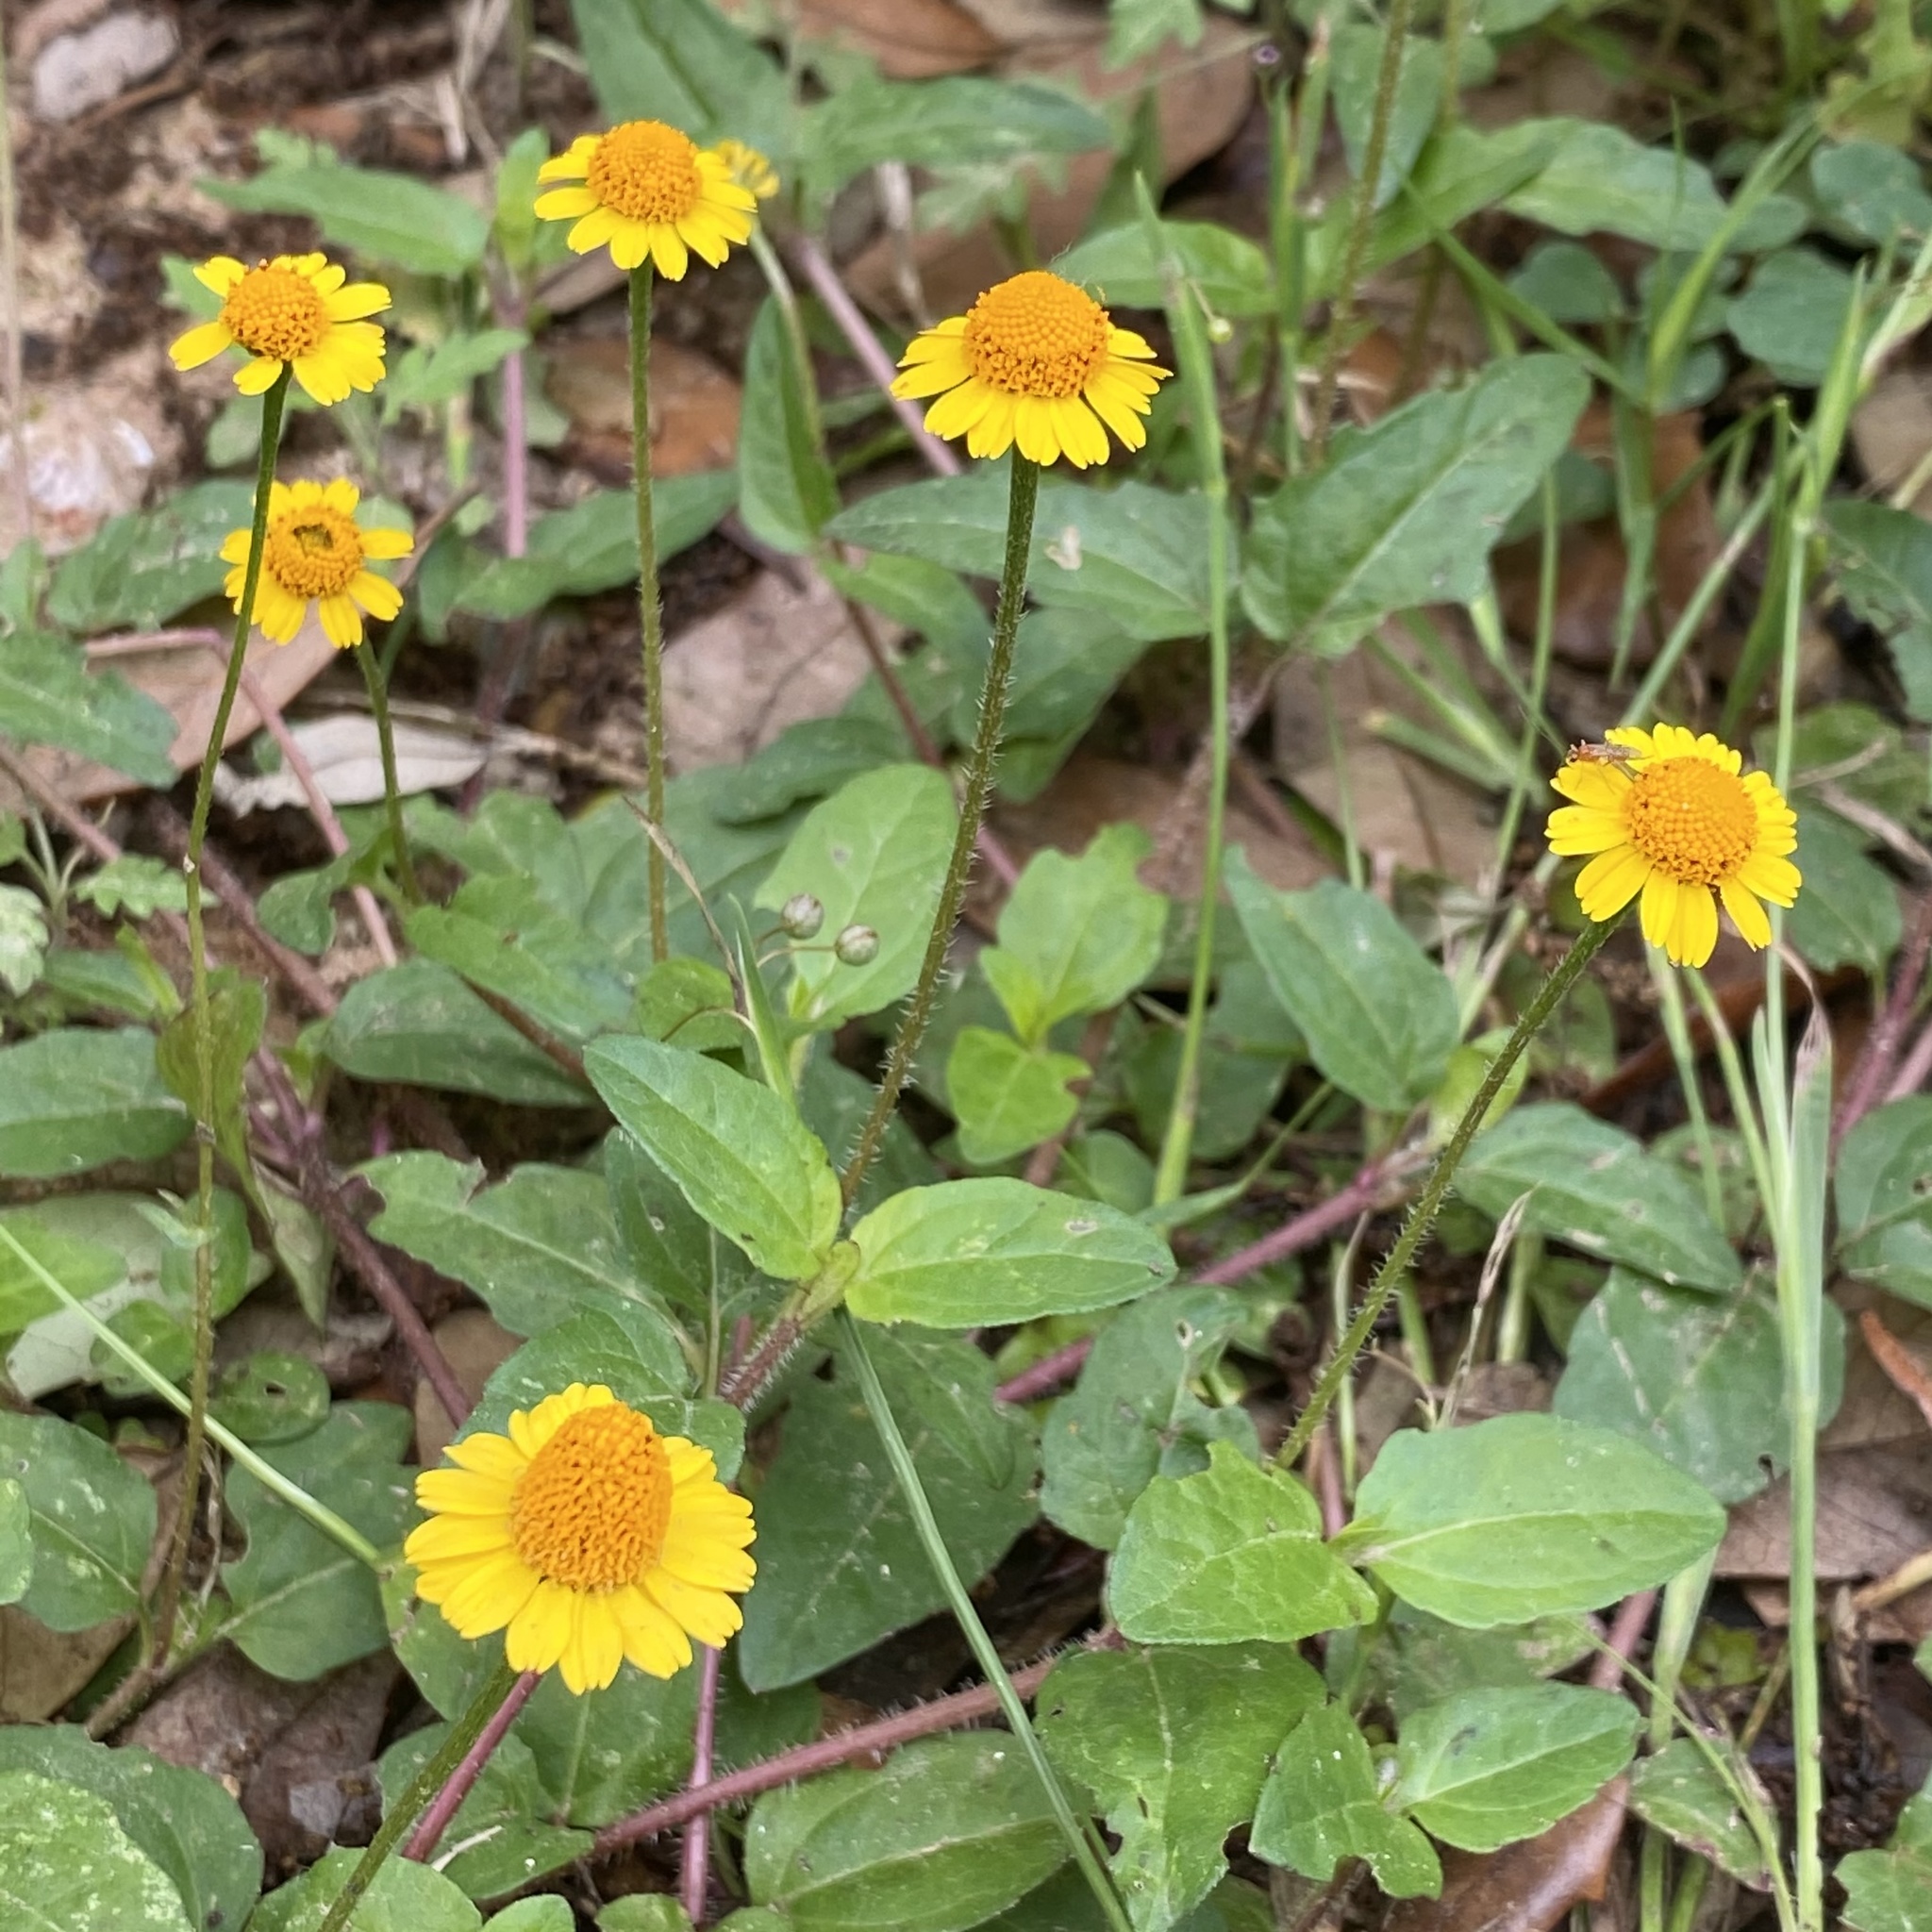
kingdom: Plantae
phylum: Tracheophyta
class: Magnoliopsida
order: Asterales
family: Asteraceae
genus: Acmella
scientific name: Acmella repens
